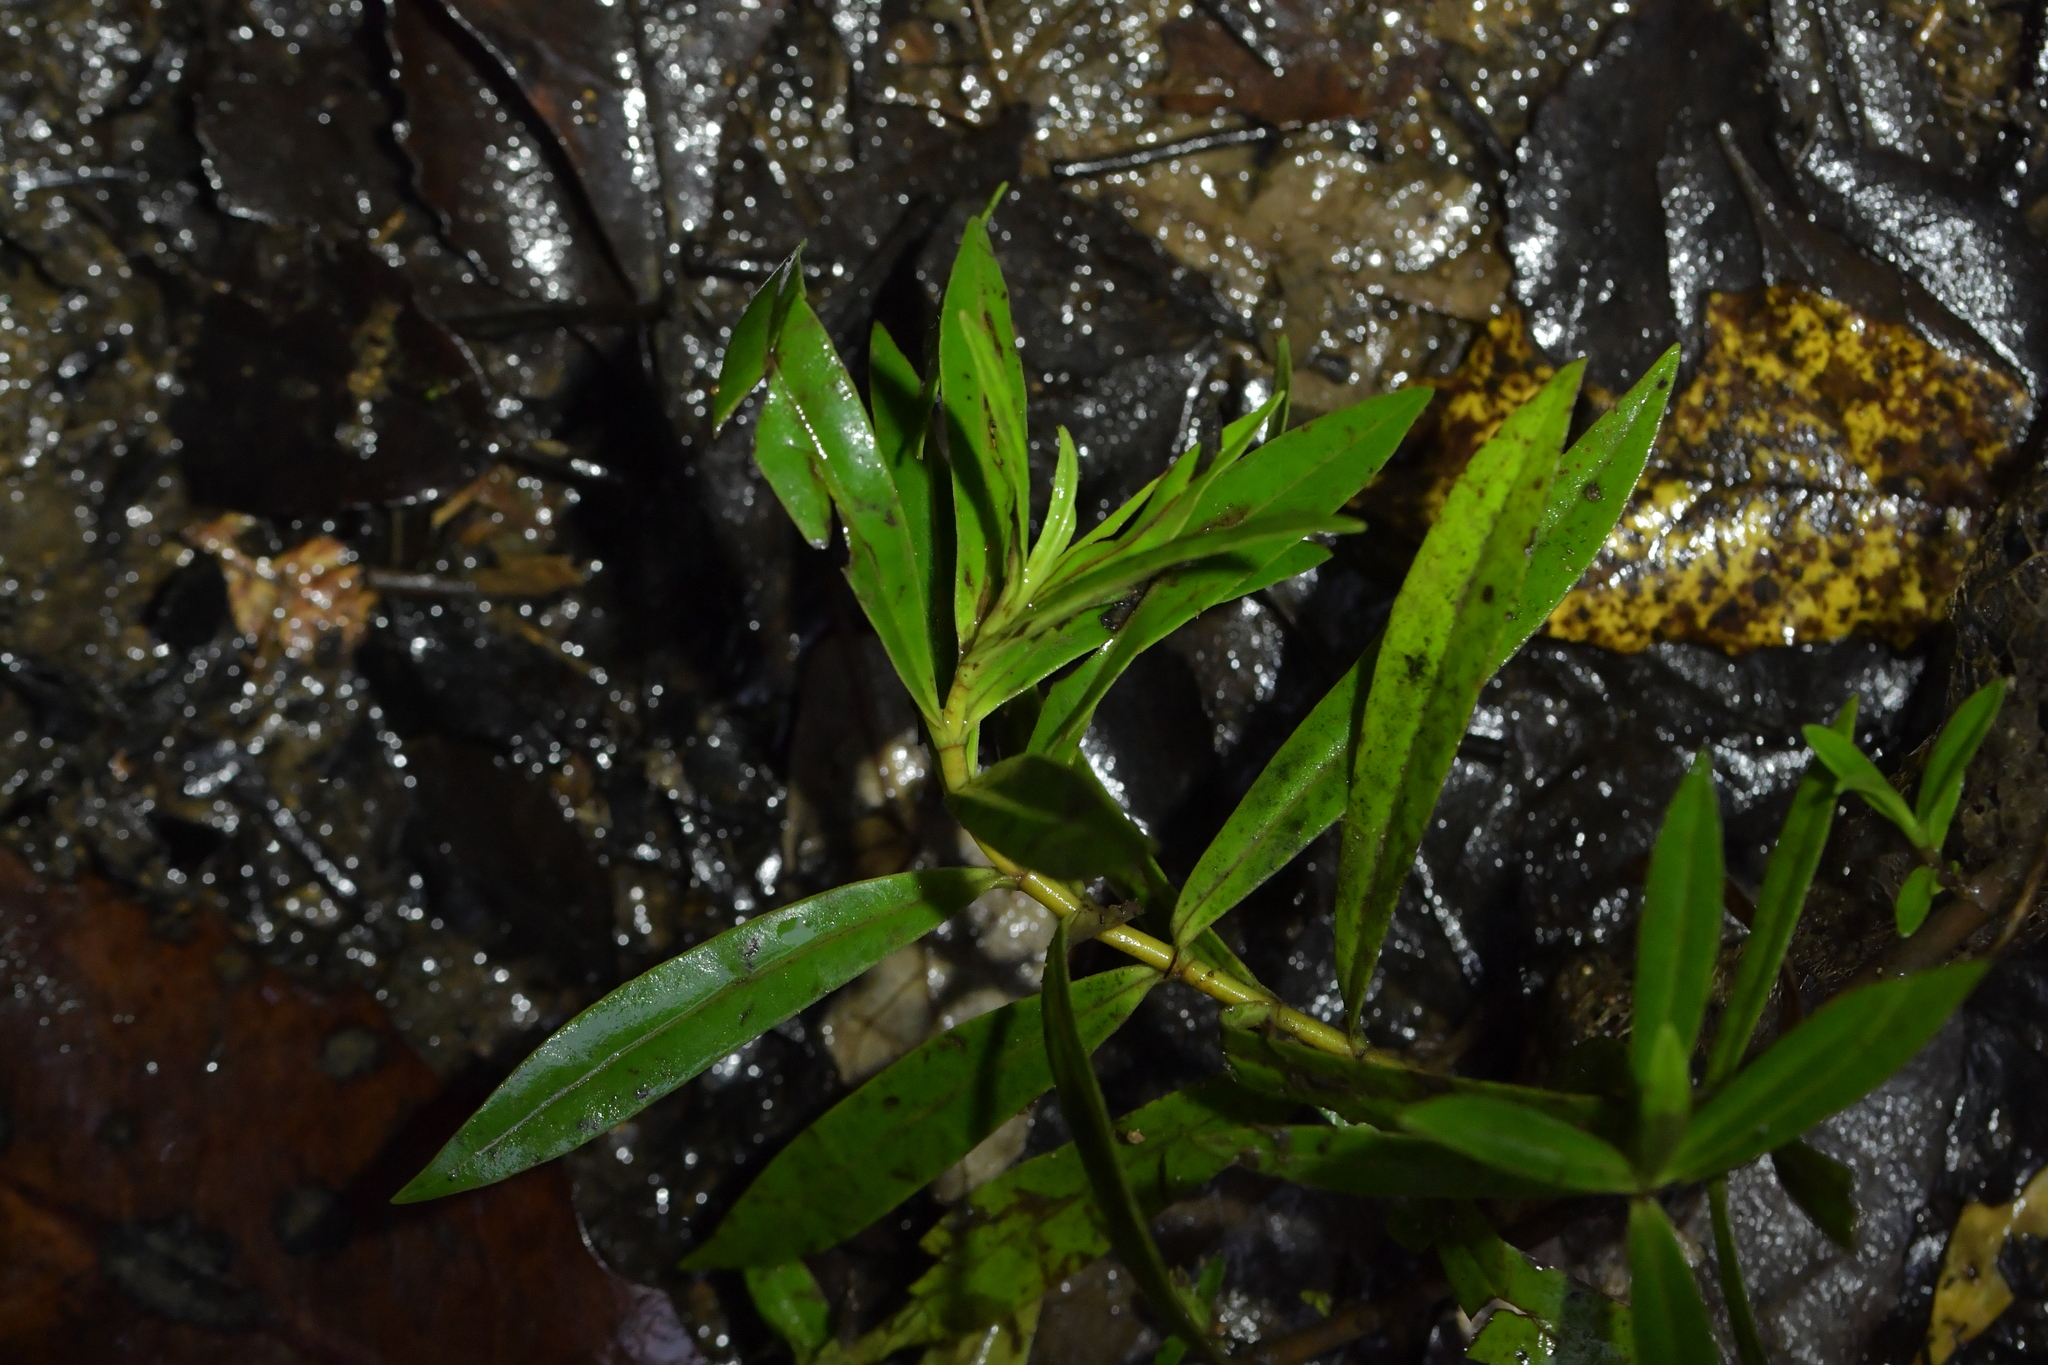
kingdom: Plantae
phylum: Tracheophyta
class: Magnoliopsida
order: Lamiales
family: Plantaginaceae
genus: Veronica
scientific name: Veronica stricta
